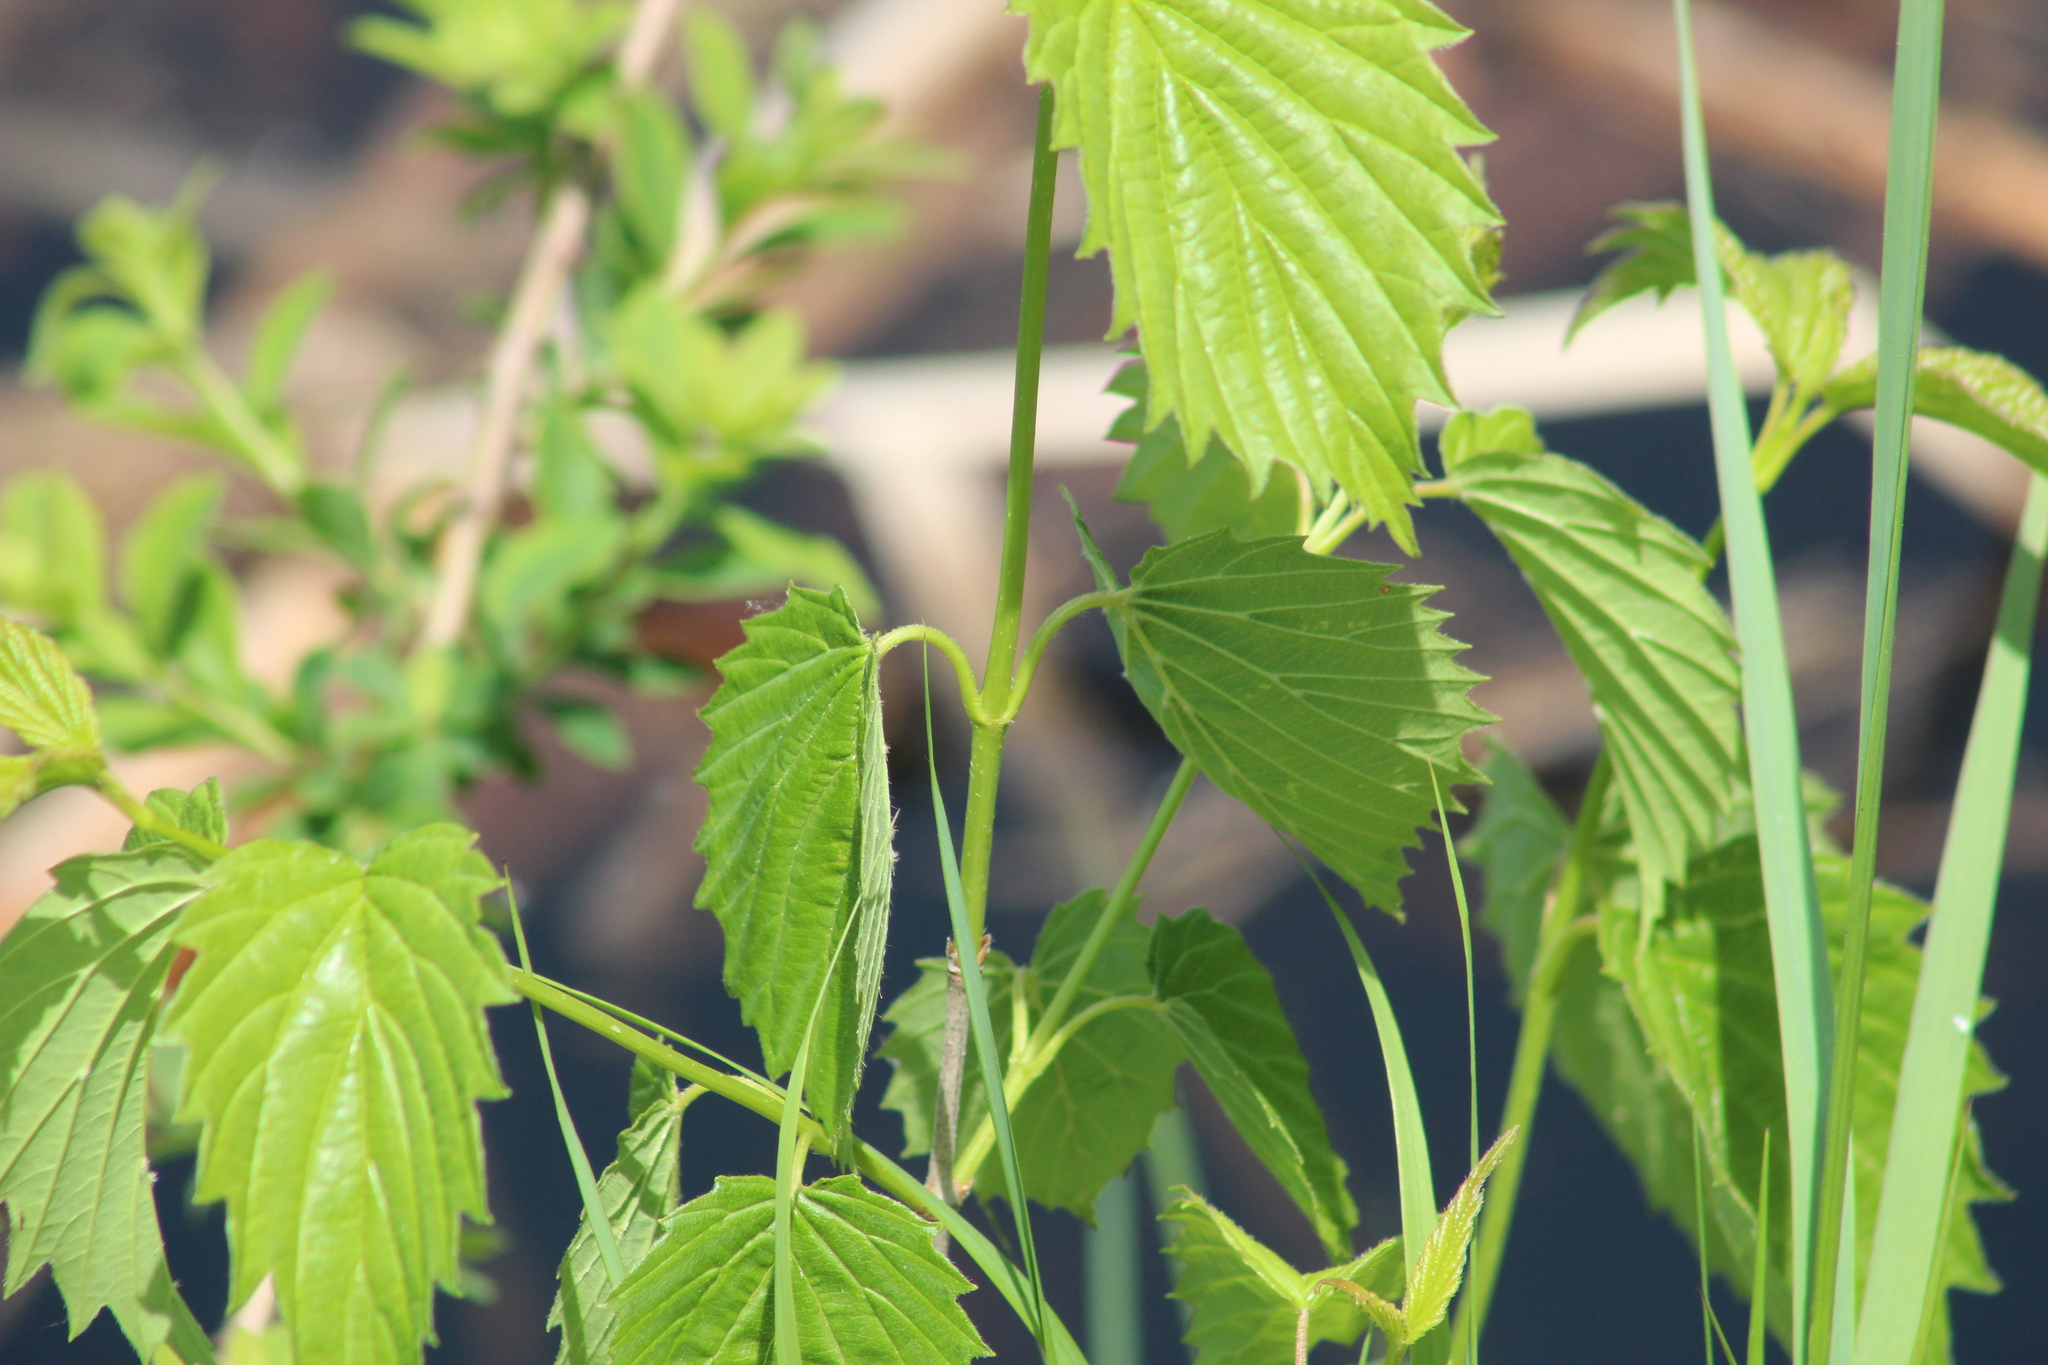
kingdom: Plantae
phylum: Tracheophyta
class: Magnoliopsida
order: Dipsacales
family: Viburnaceae
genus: Viburnum
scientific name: Viburnum dentatum
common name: Arrow-wood
